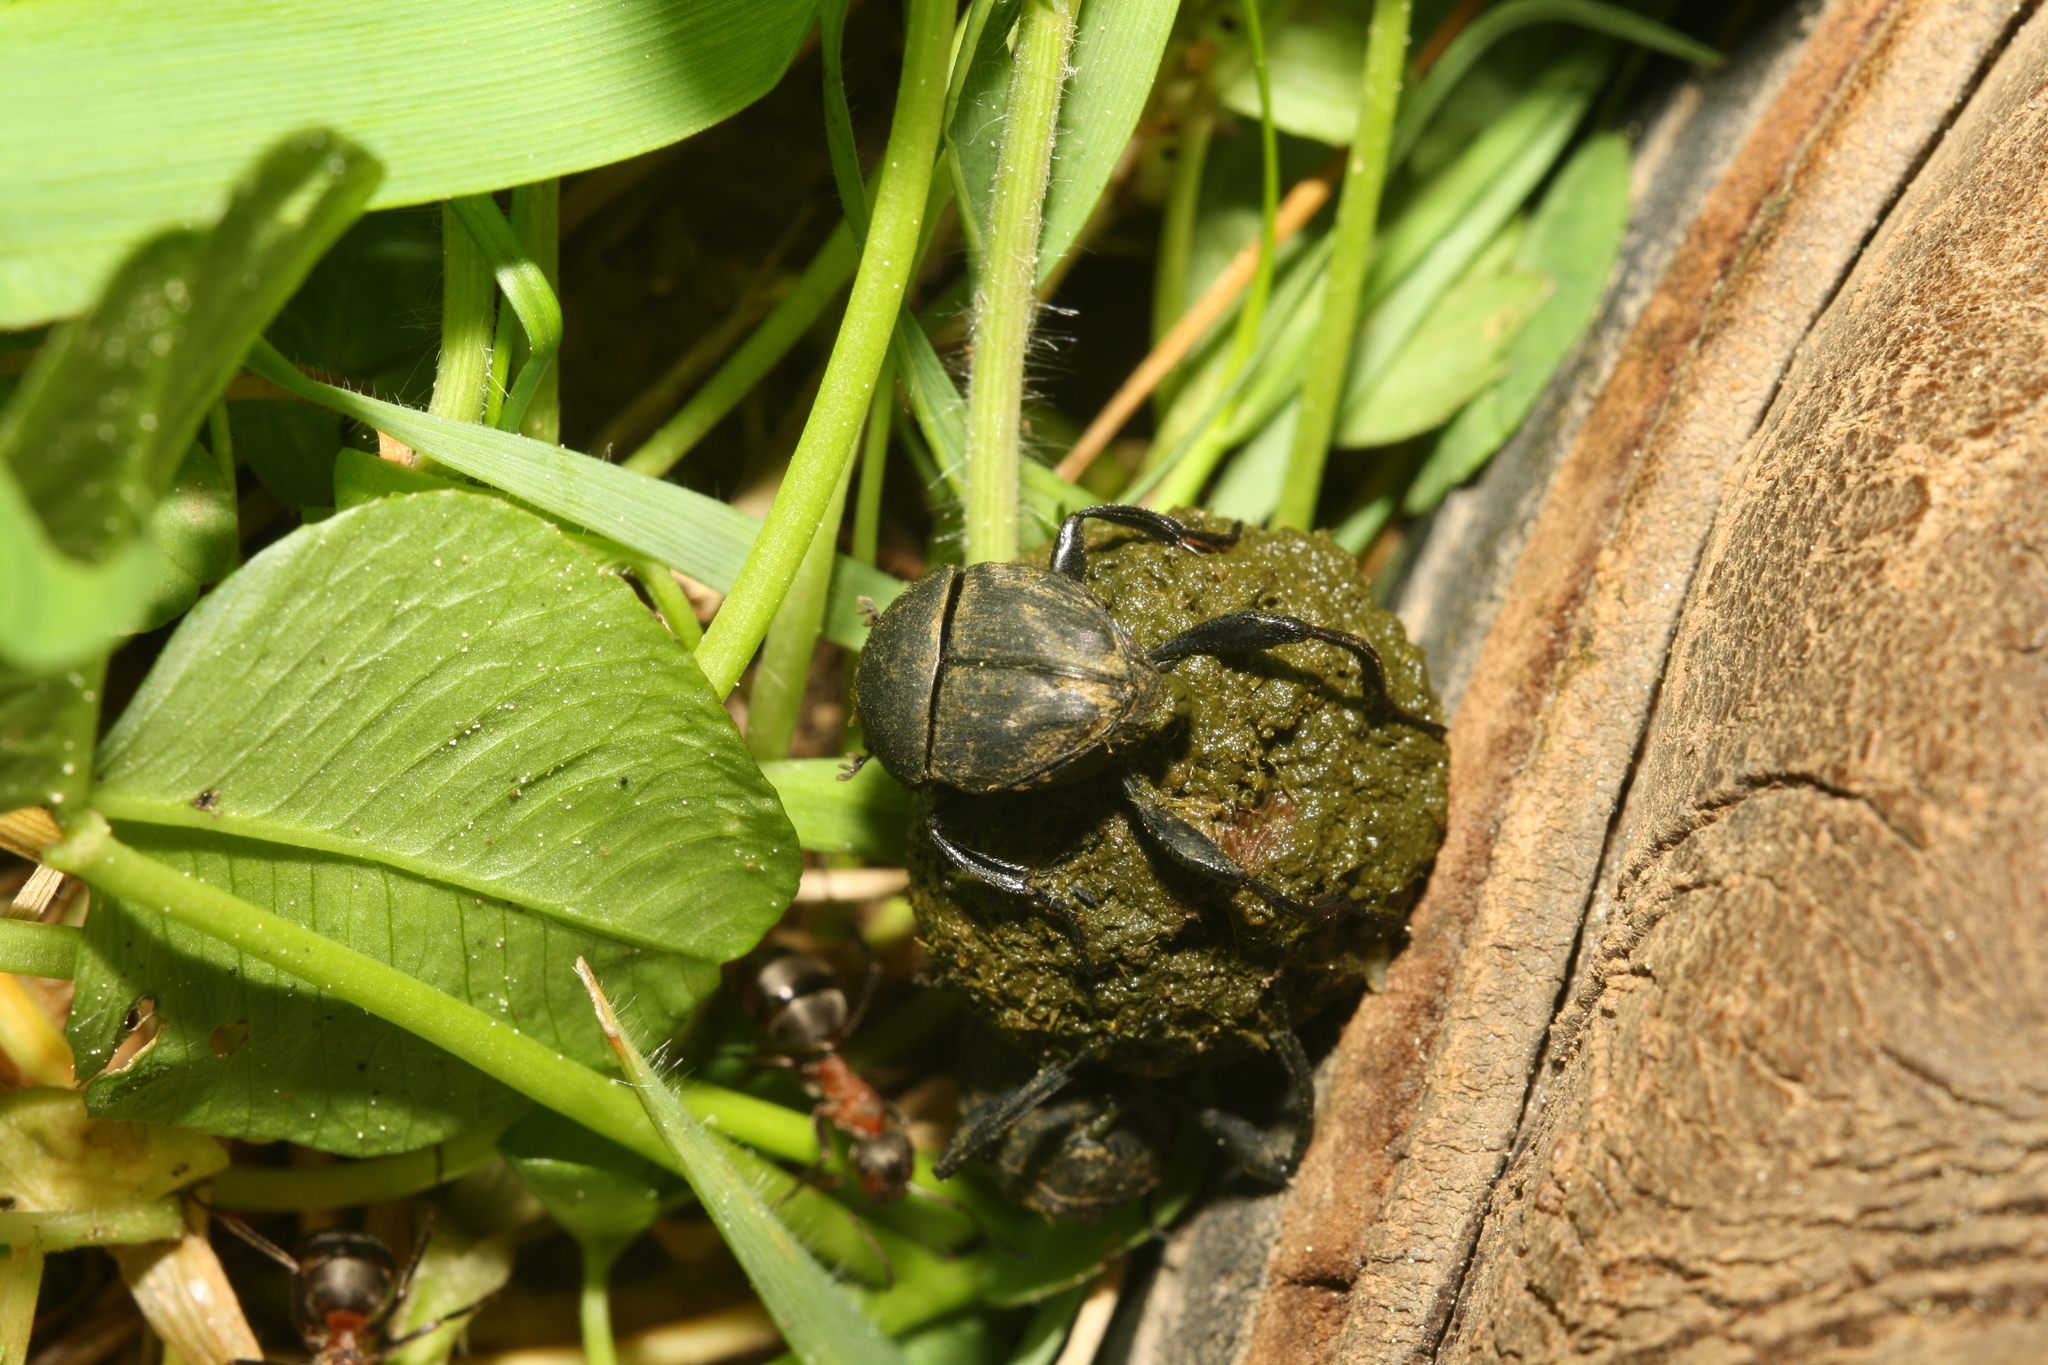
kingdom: Animalia
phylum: Arthropoda
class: Insecta
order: Coleoptera
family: Scarabaeidae
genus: Sisyphus
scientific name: Sisyphus schaefferi
